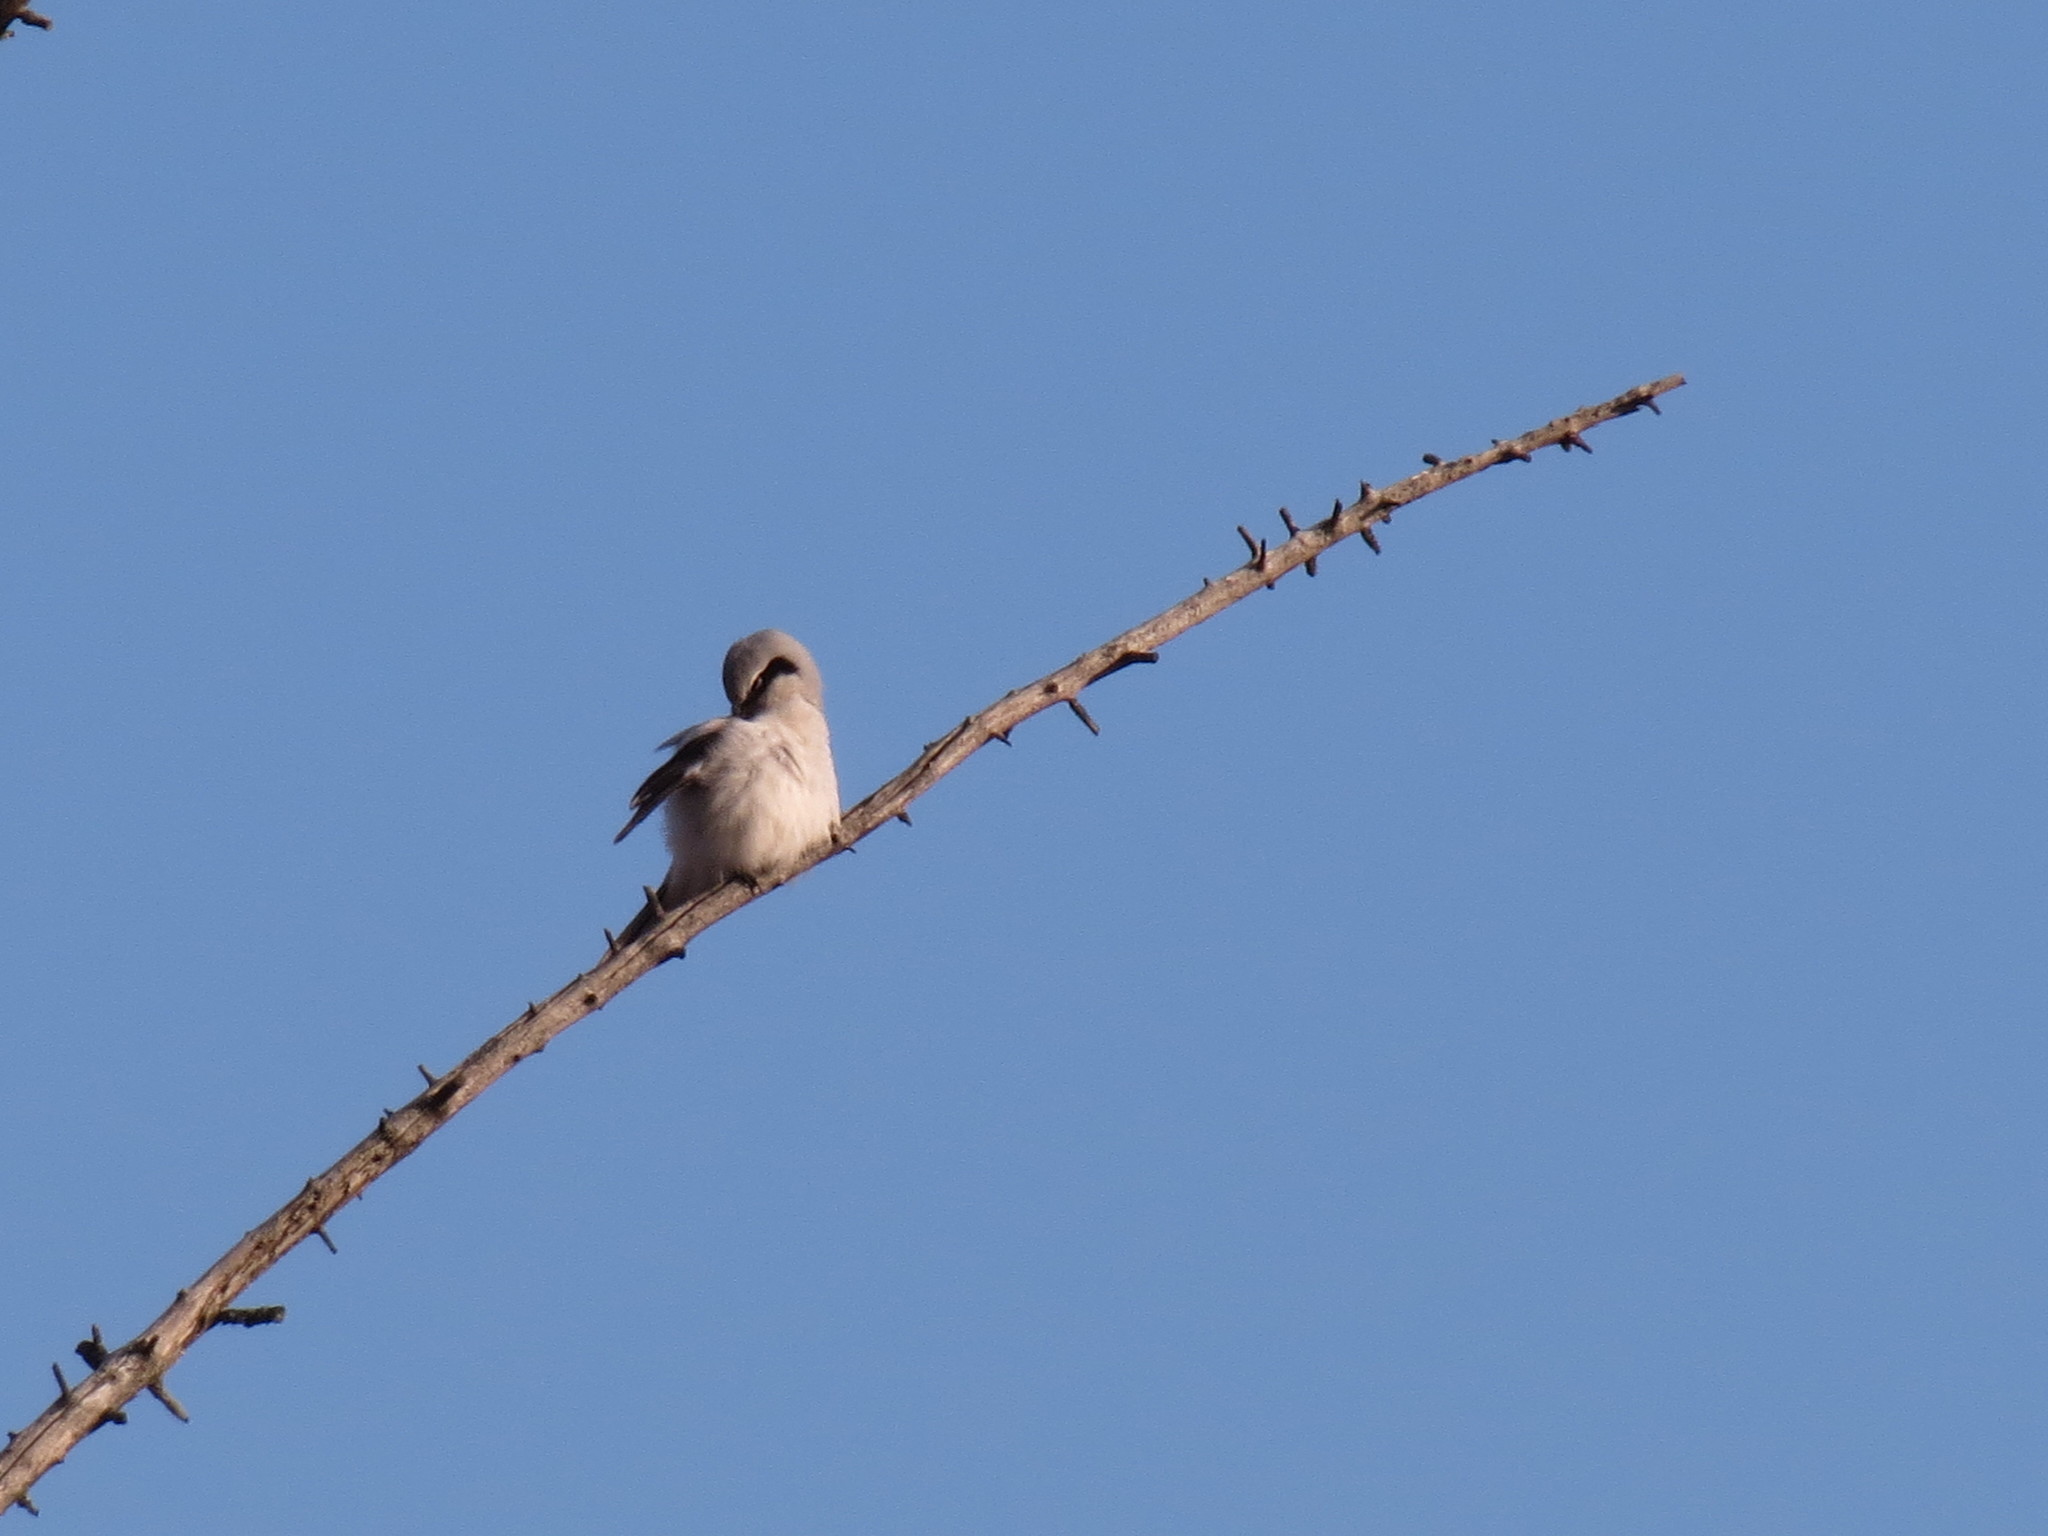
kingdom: Animalia
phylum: Chordata
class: Aves
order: Passeriformes
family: Laniidae
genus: Lanius
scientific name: Lanius borealis
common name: Northern shrike
